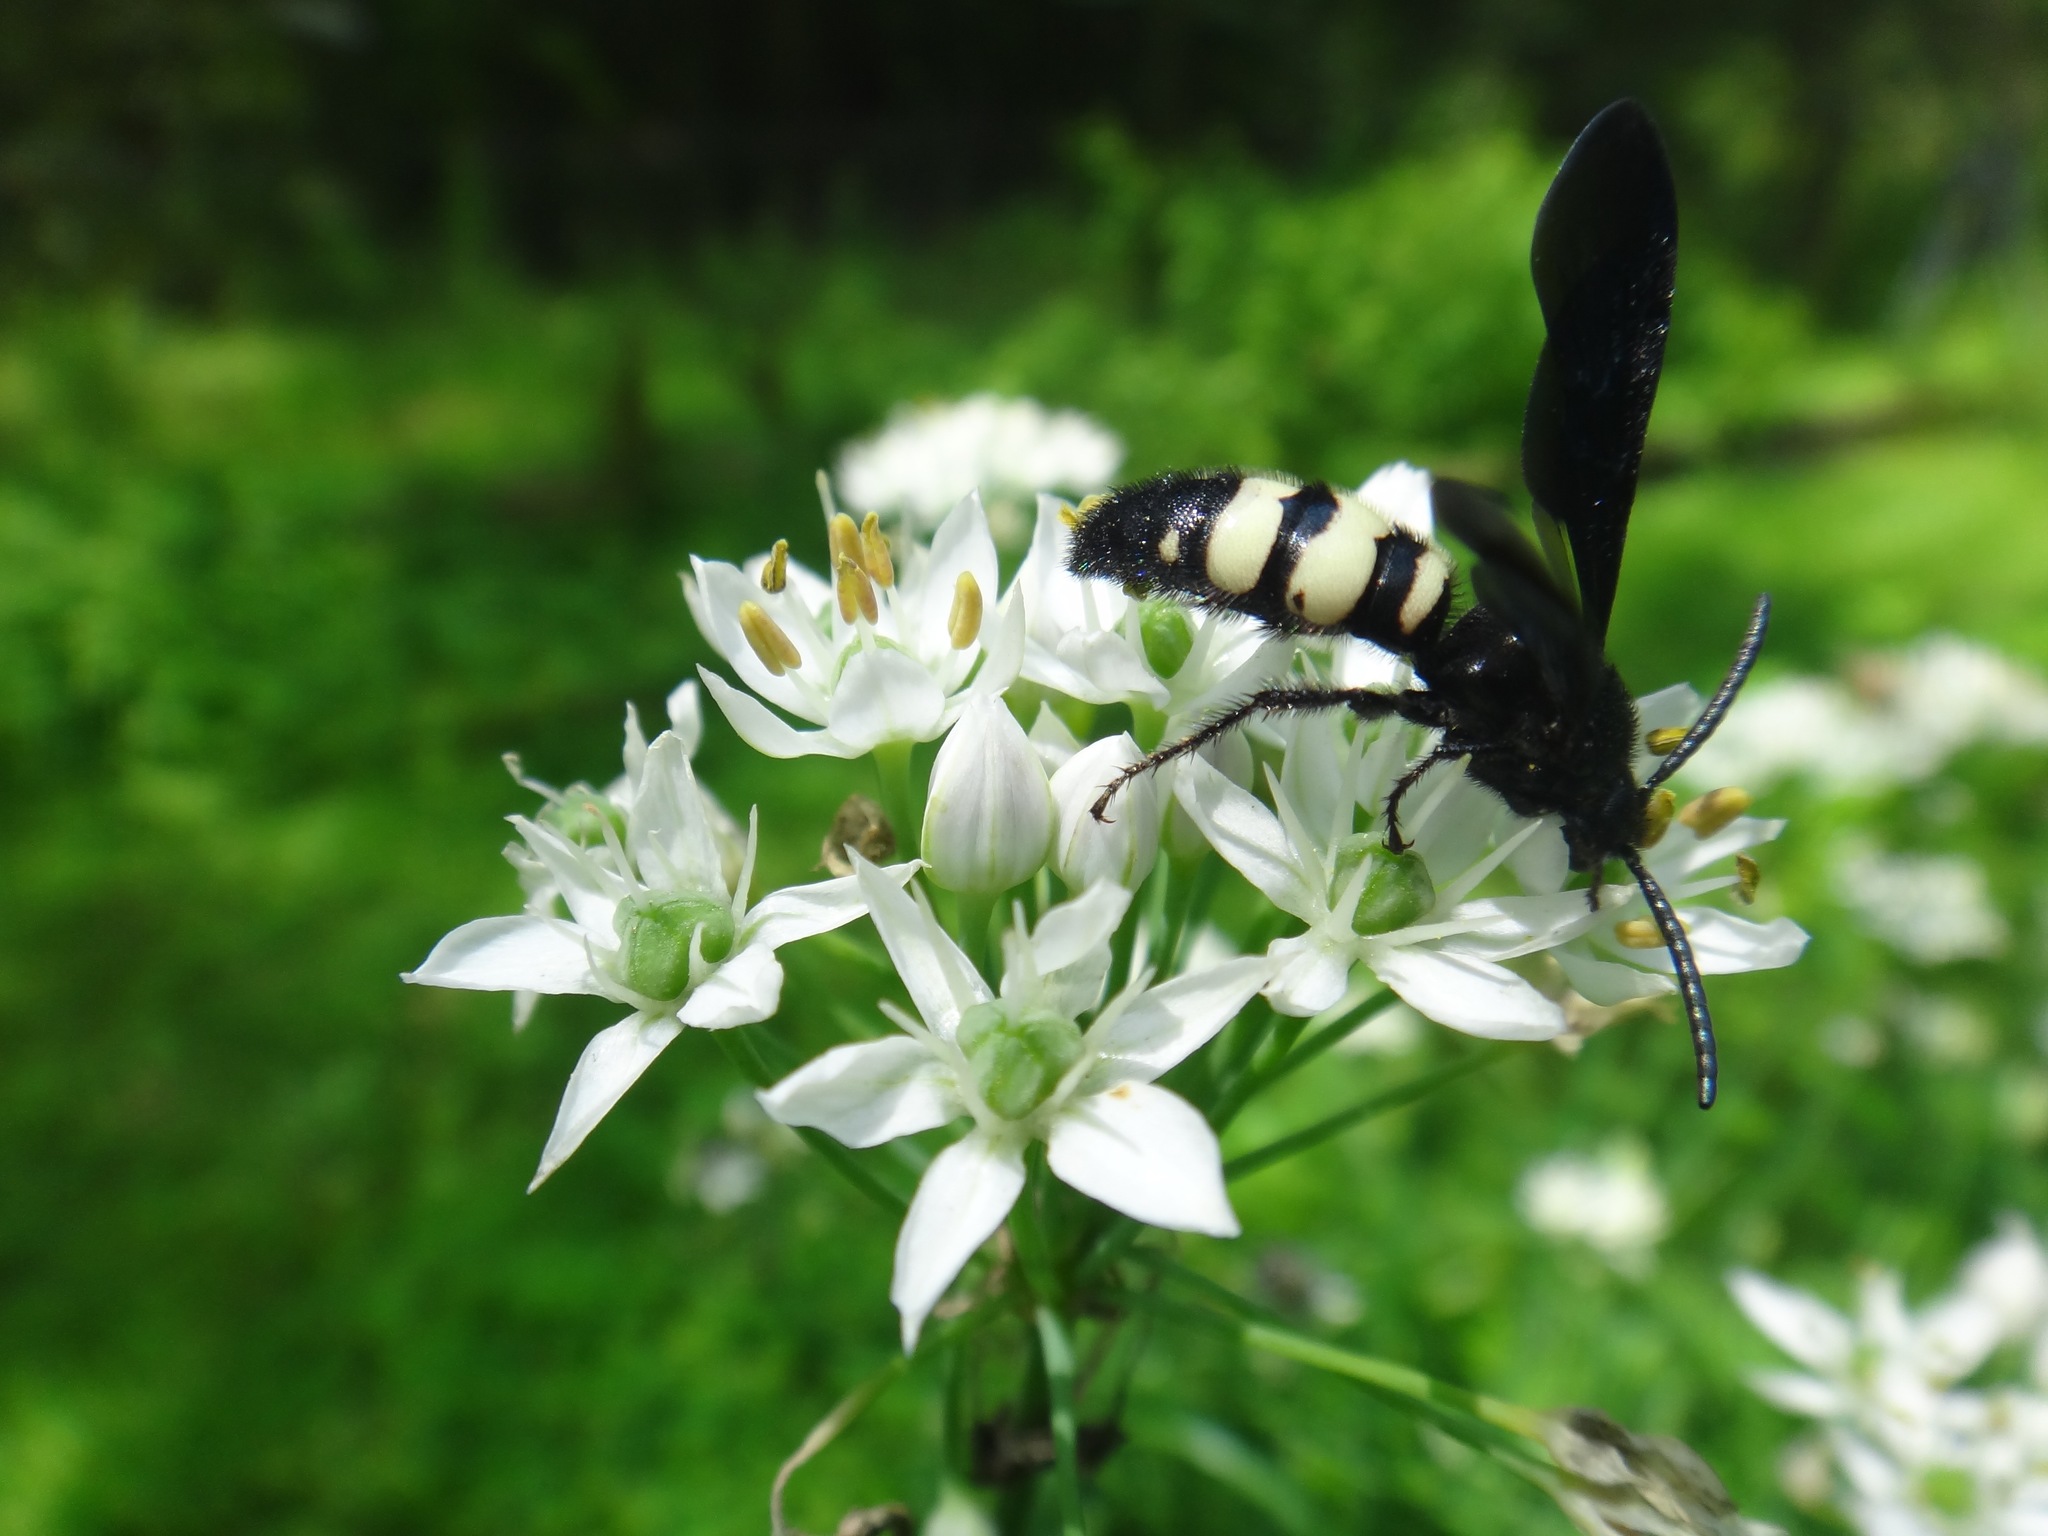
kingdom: Animalia
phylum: Arthropoda
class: Insecta
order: Hymenoptera
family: Scoliidae
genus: Scolia
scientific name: Scolia bicincta
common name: Double-banded scoliid wasp
